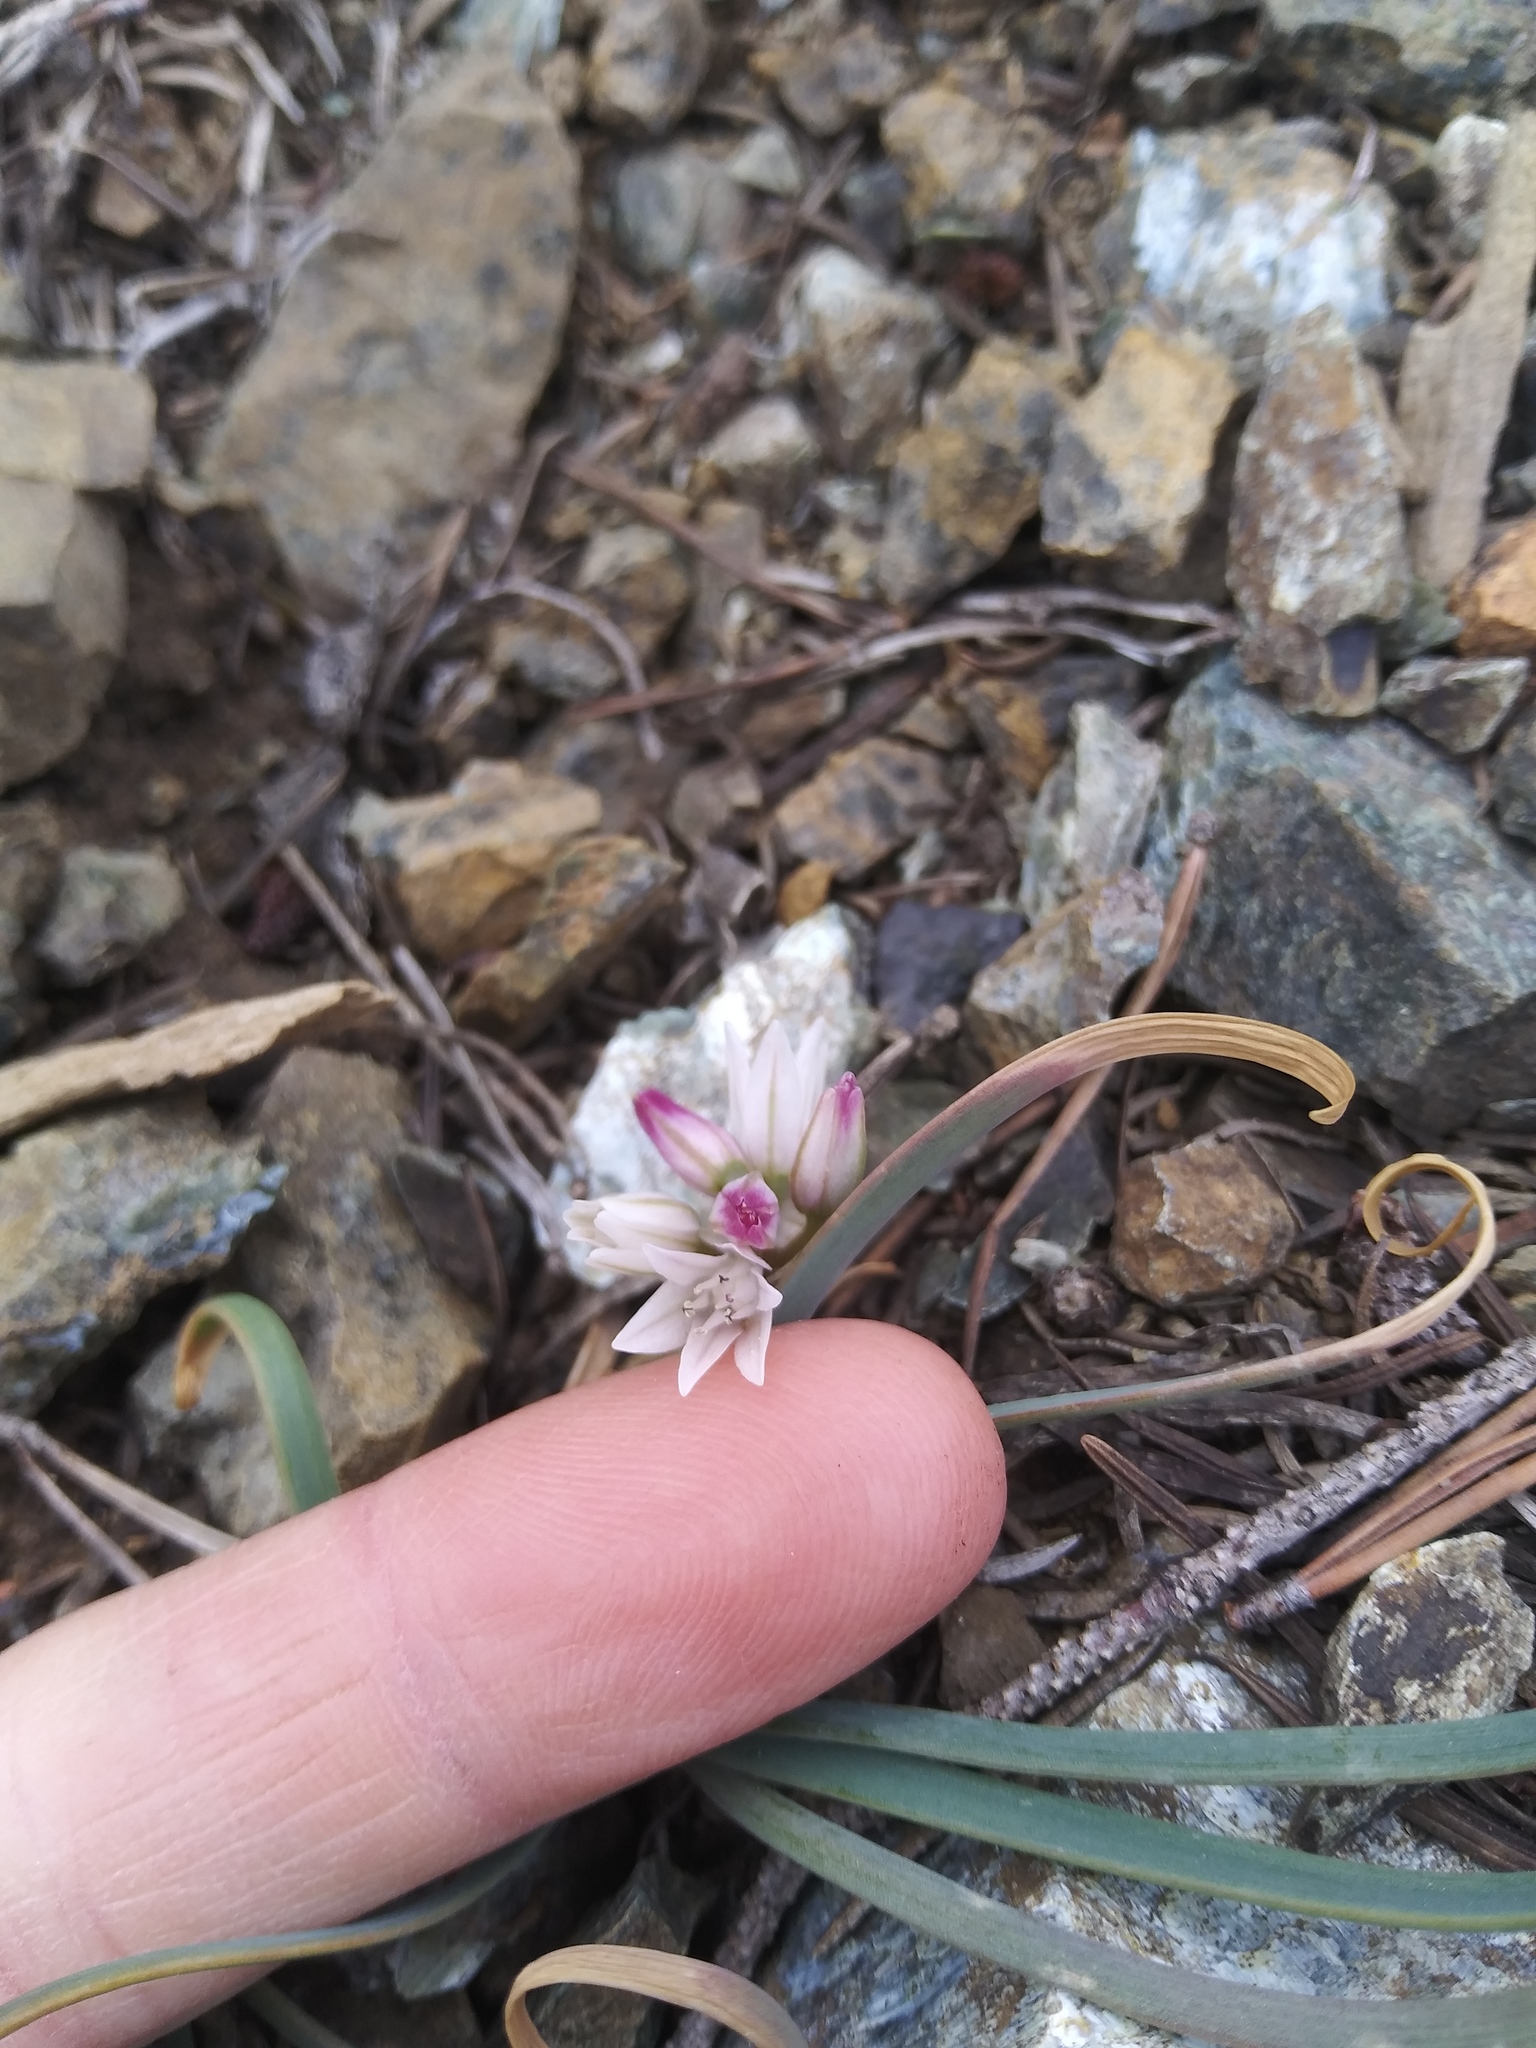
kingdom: Plantae
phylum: Tracheophyta
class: Liliopsida
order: Asparagales
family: Amaryllidaceae
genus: Allium
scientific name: Allium crenulatum
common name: Olympic onion
